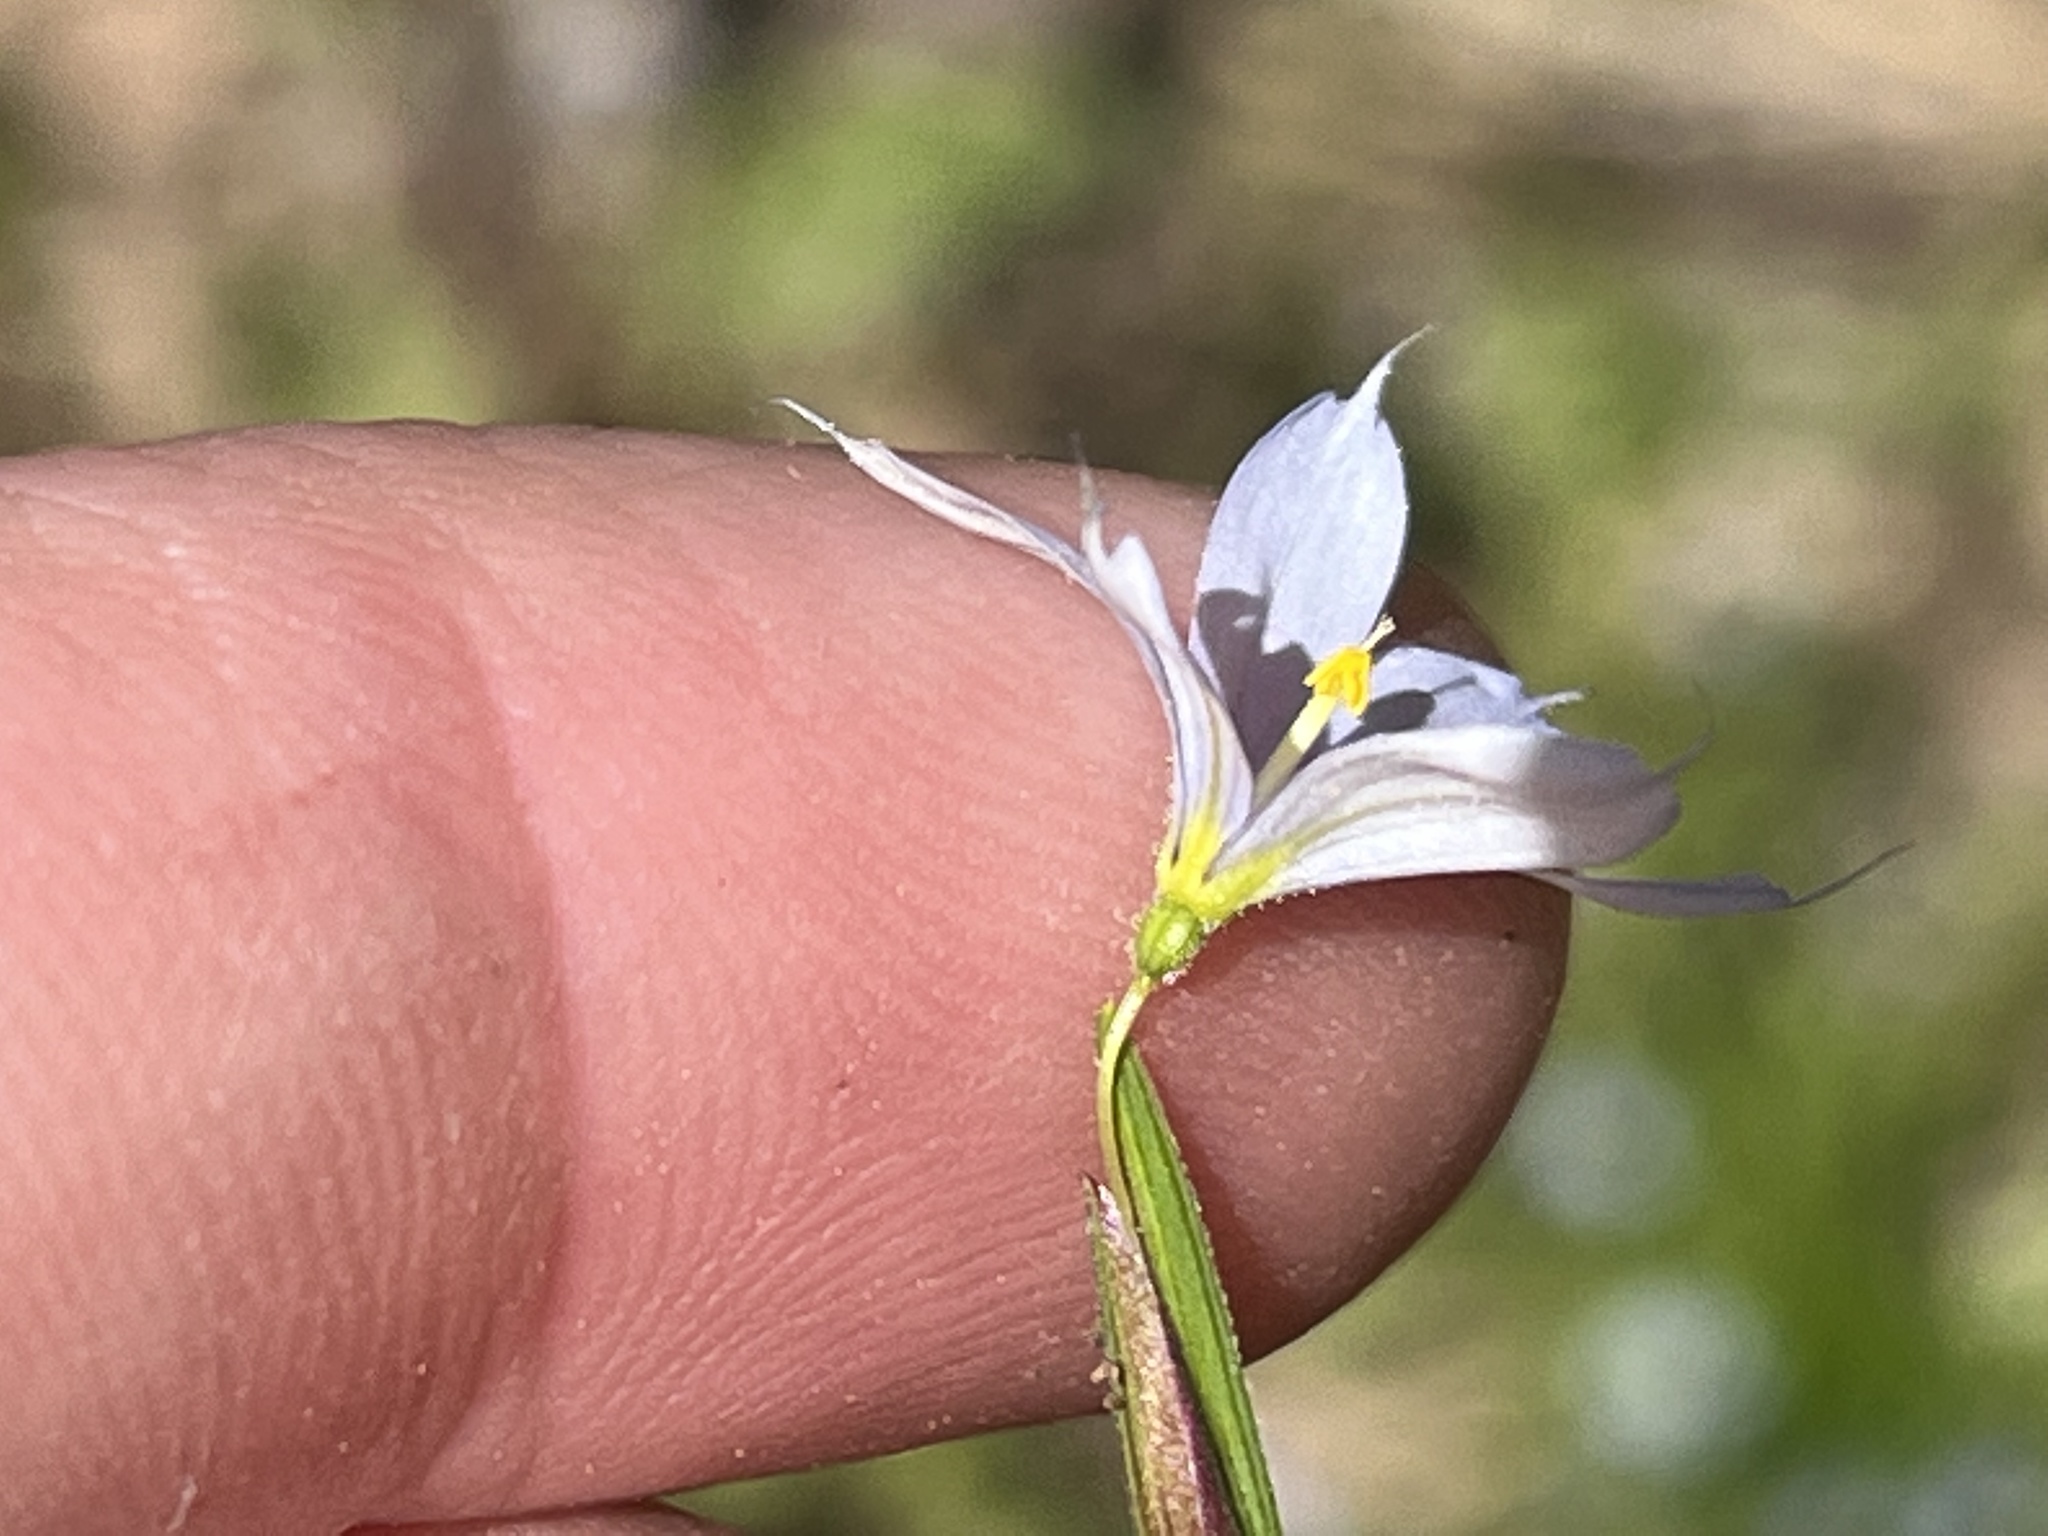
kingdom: Plantae
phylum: Tracheophyta
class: Liliopsida
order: Asparagales
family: Iridaceae
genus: Sisyrinchium
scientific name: Sisyrinchium angustifolium
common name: Narrow-leaf blue-eyed-grass
